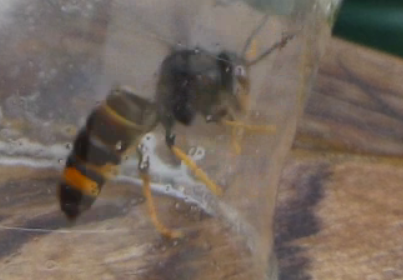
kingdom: Animalia
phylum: Arthropoda
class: Insecta
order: Hymenoptera
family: Vespidae
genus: Vespa
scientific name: Vespa velutina
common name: Asian hornet
